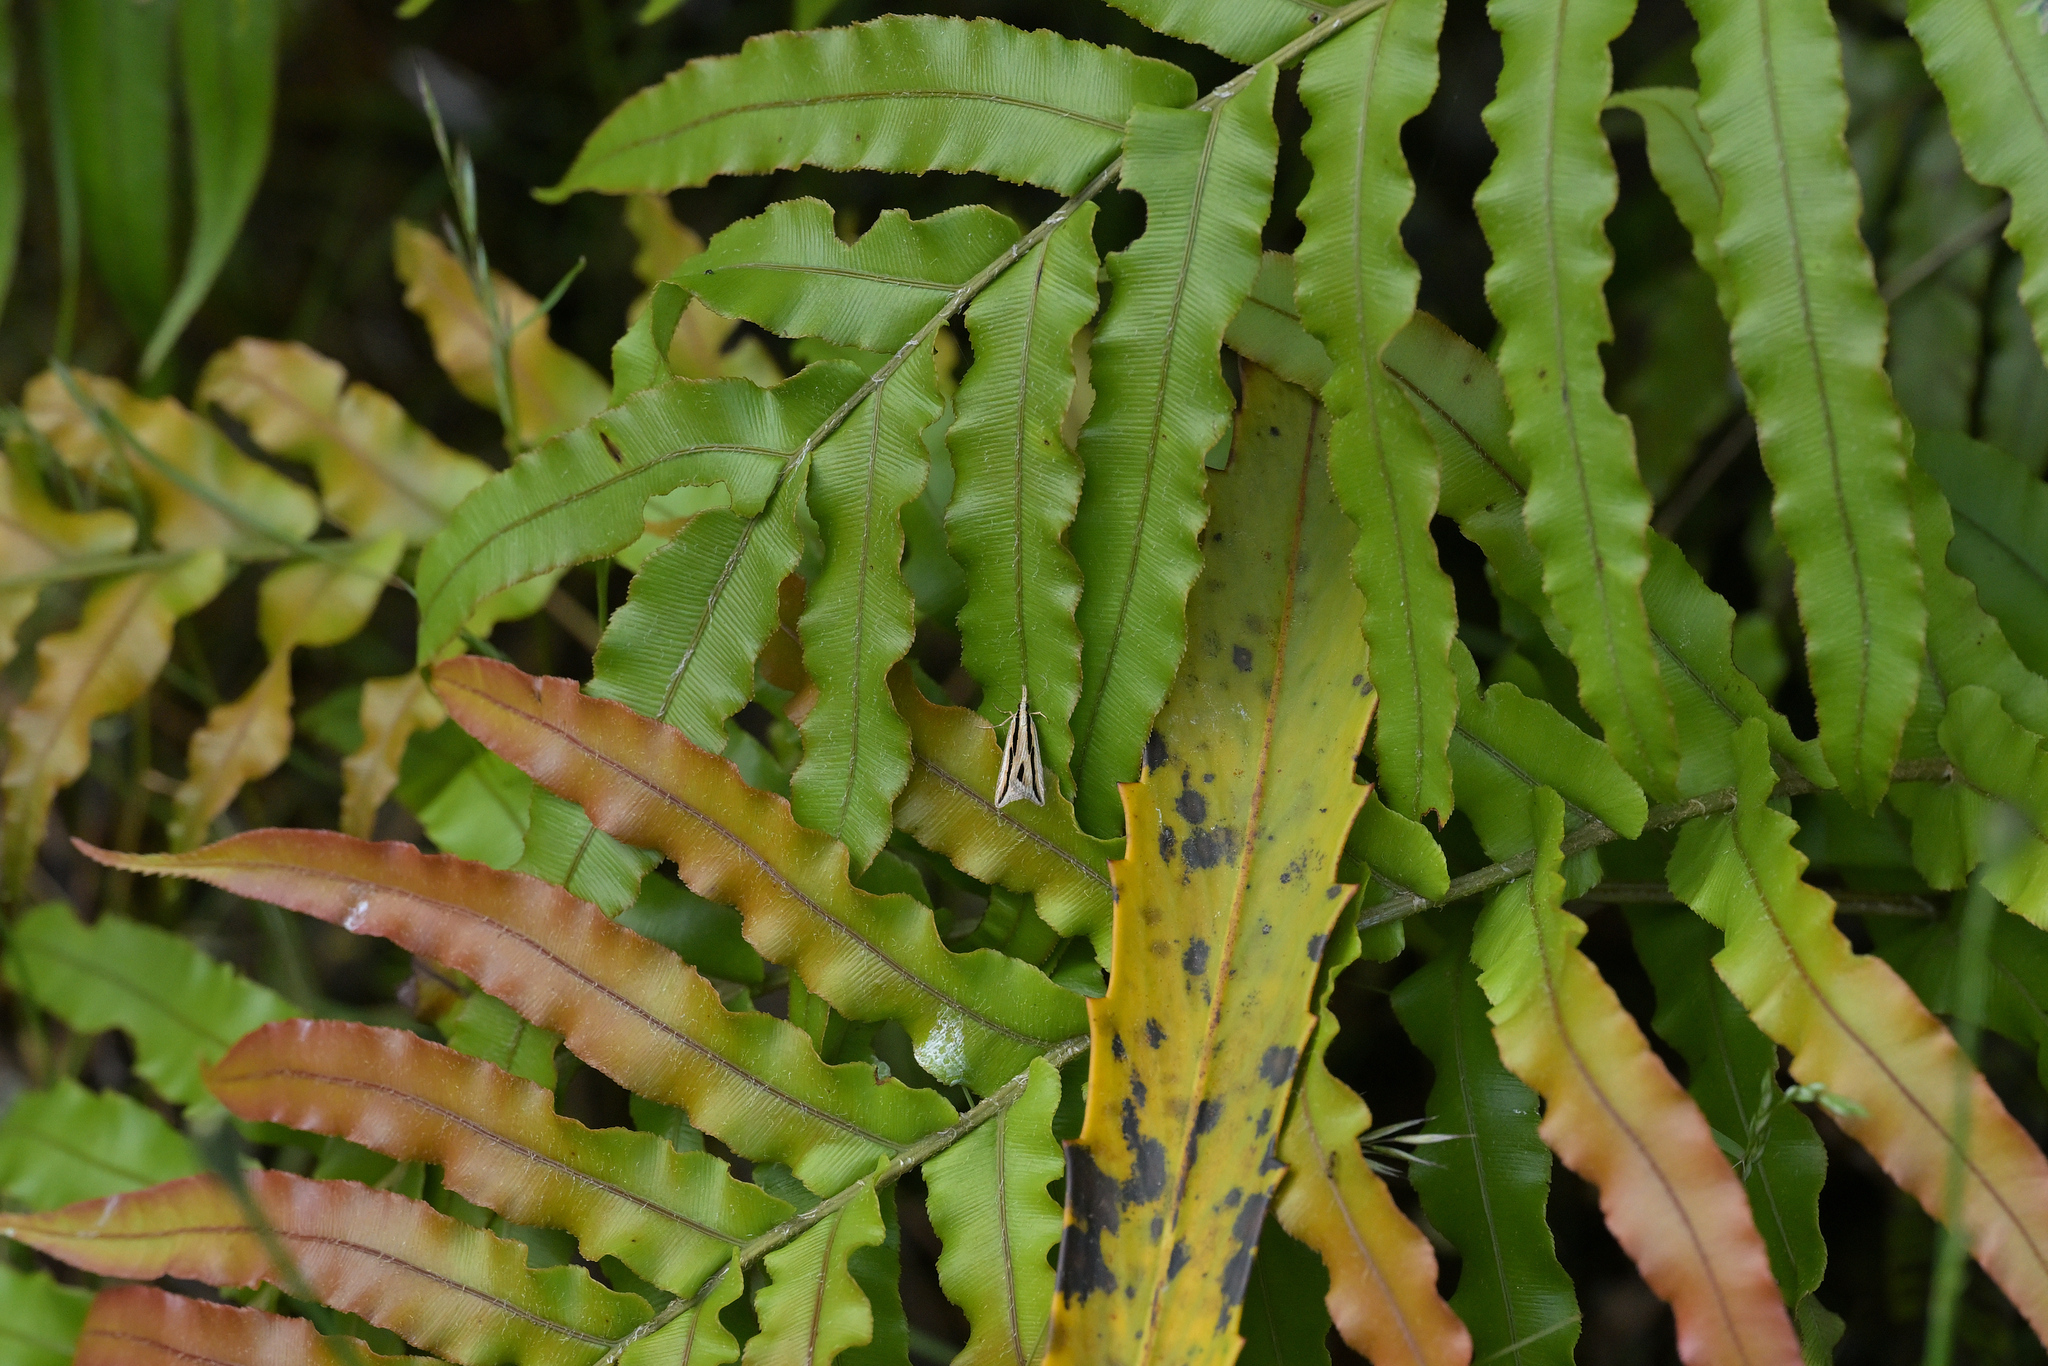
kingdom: Animalia
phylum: Arthropoda
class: Insecta
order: Lepidoptera
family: Crambidae
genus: Eudonia
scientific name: Eudonia trivirgata
